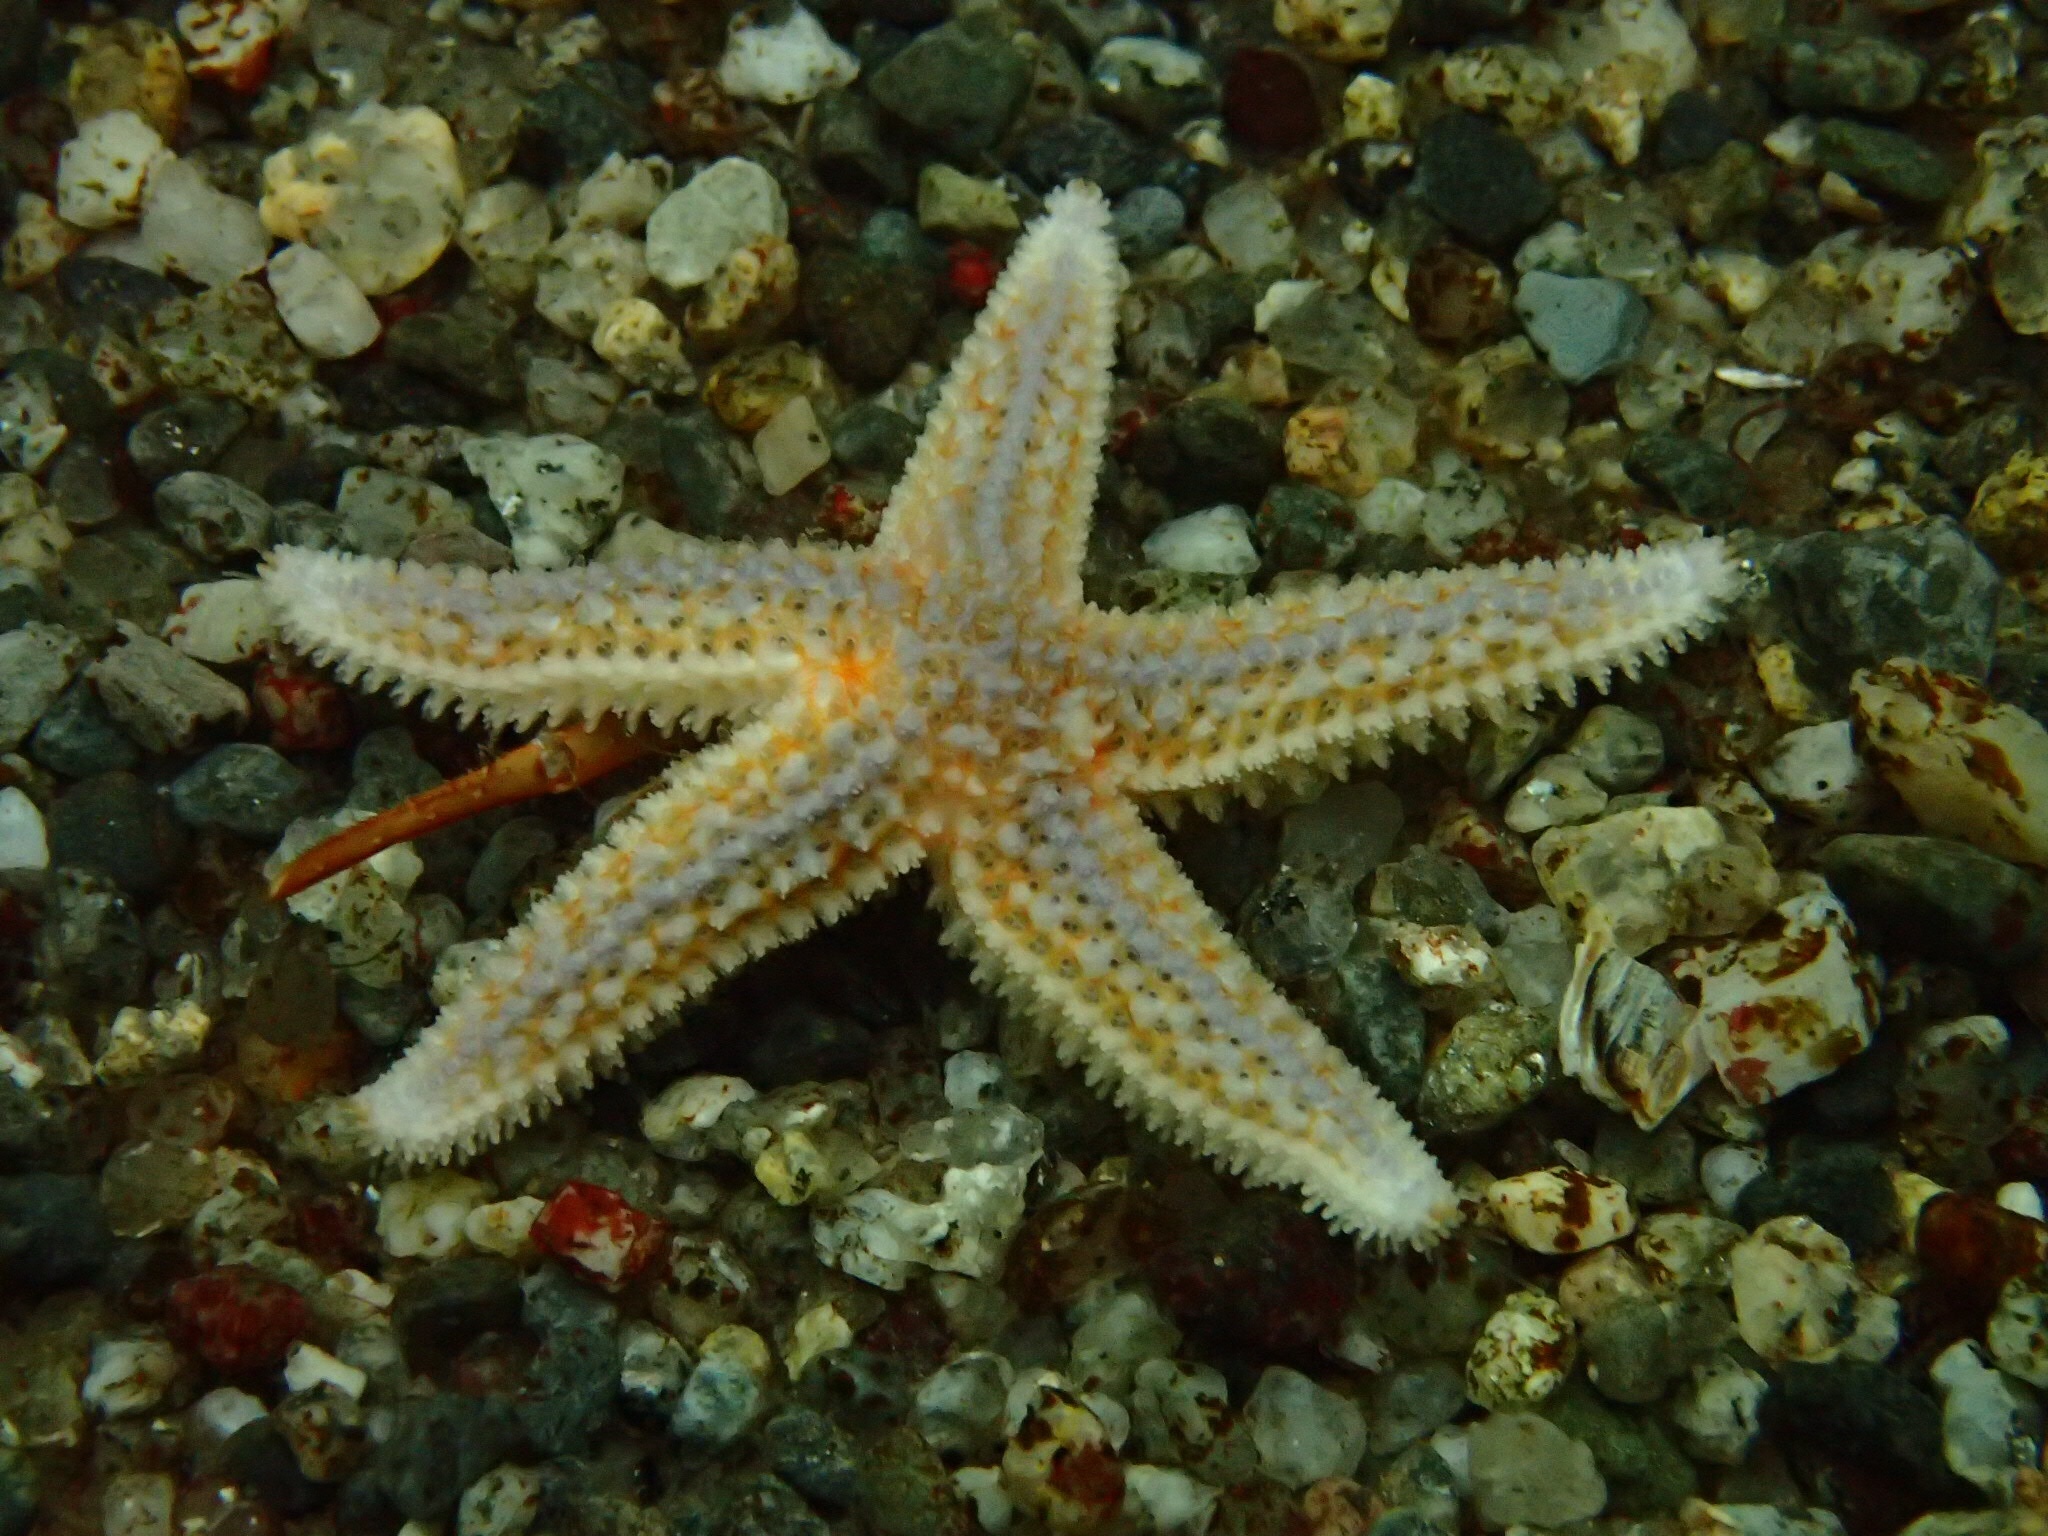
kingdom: Animalia
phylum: Echinodermata
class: Asteroidea
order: Forcipulatida
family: Asteriidae
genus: Asterias
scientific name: Asterias rubens
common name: Common starfish
